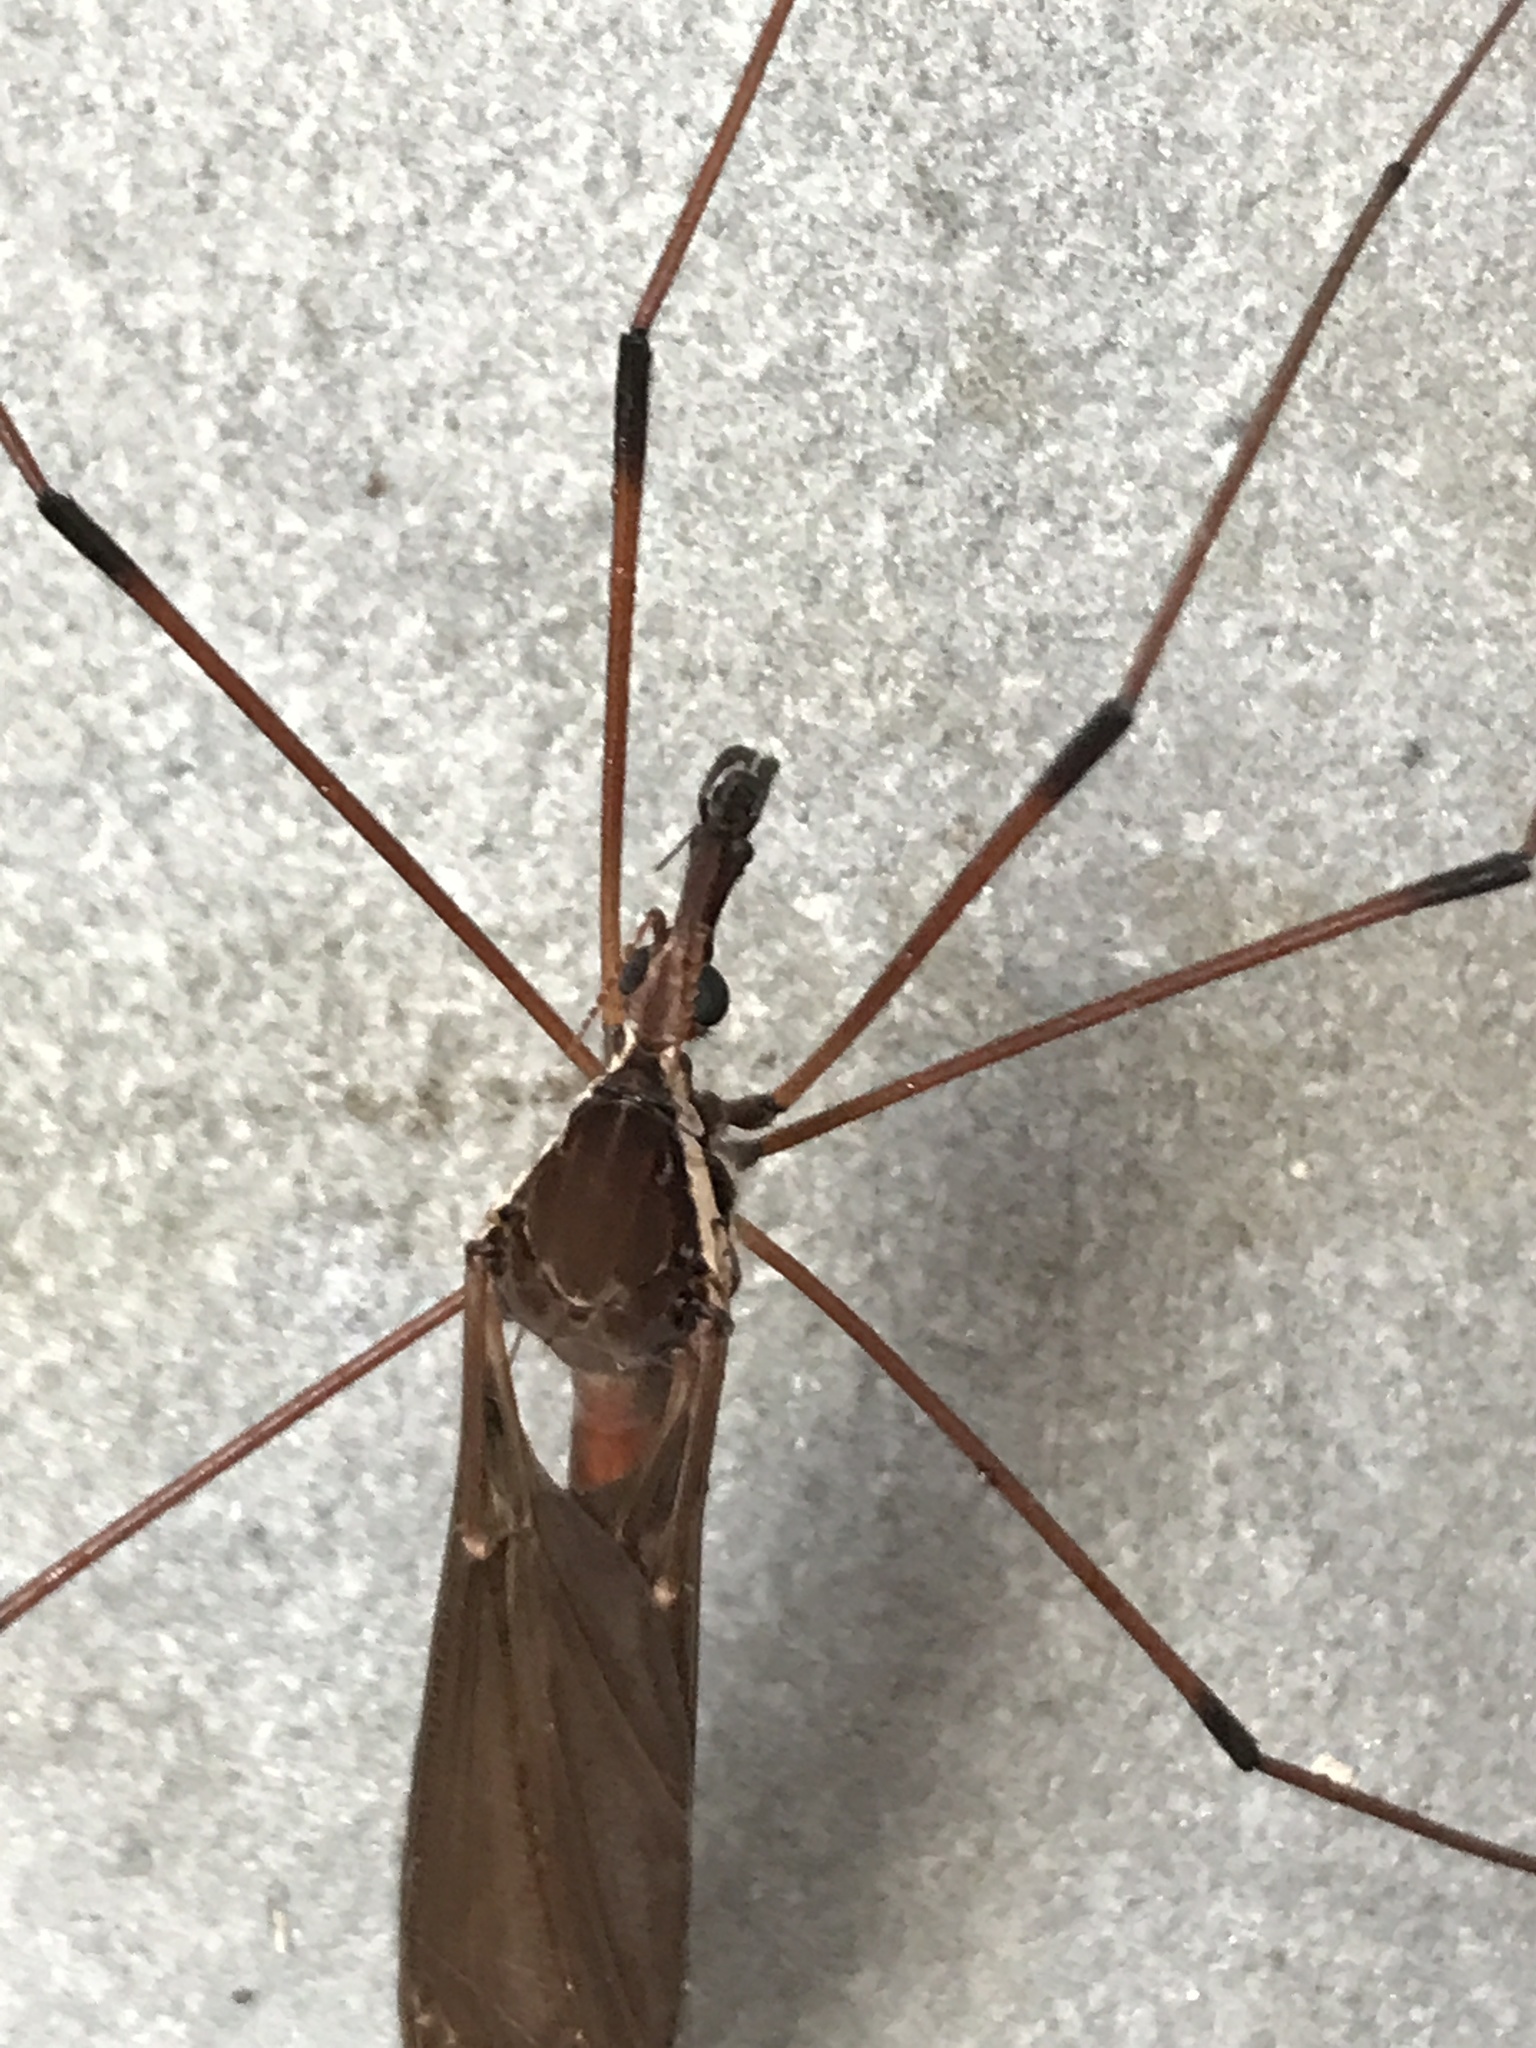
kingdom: Animalia
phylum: Arthropoda
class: Insecta
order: Diptera
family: Tipulidae
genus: Holorusia
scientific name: Holorusia hespera
